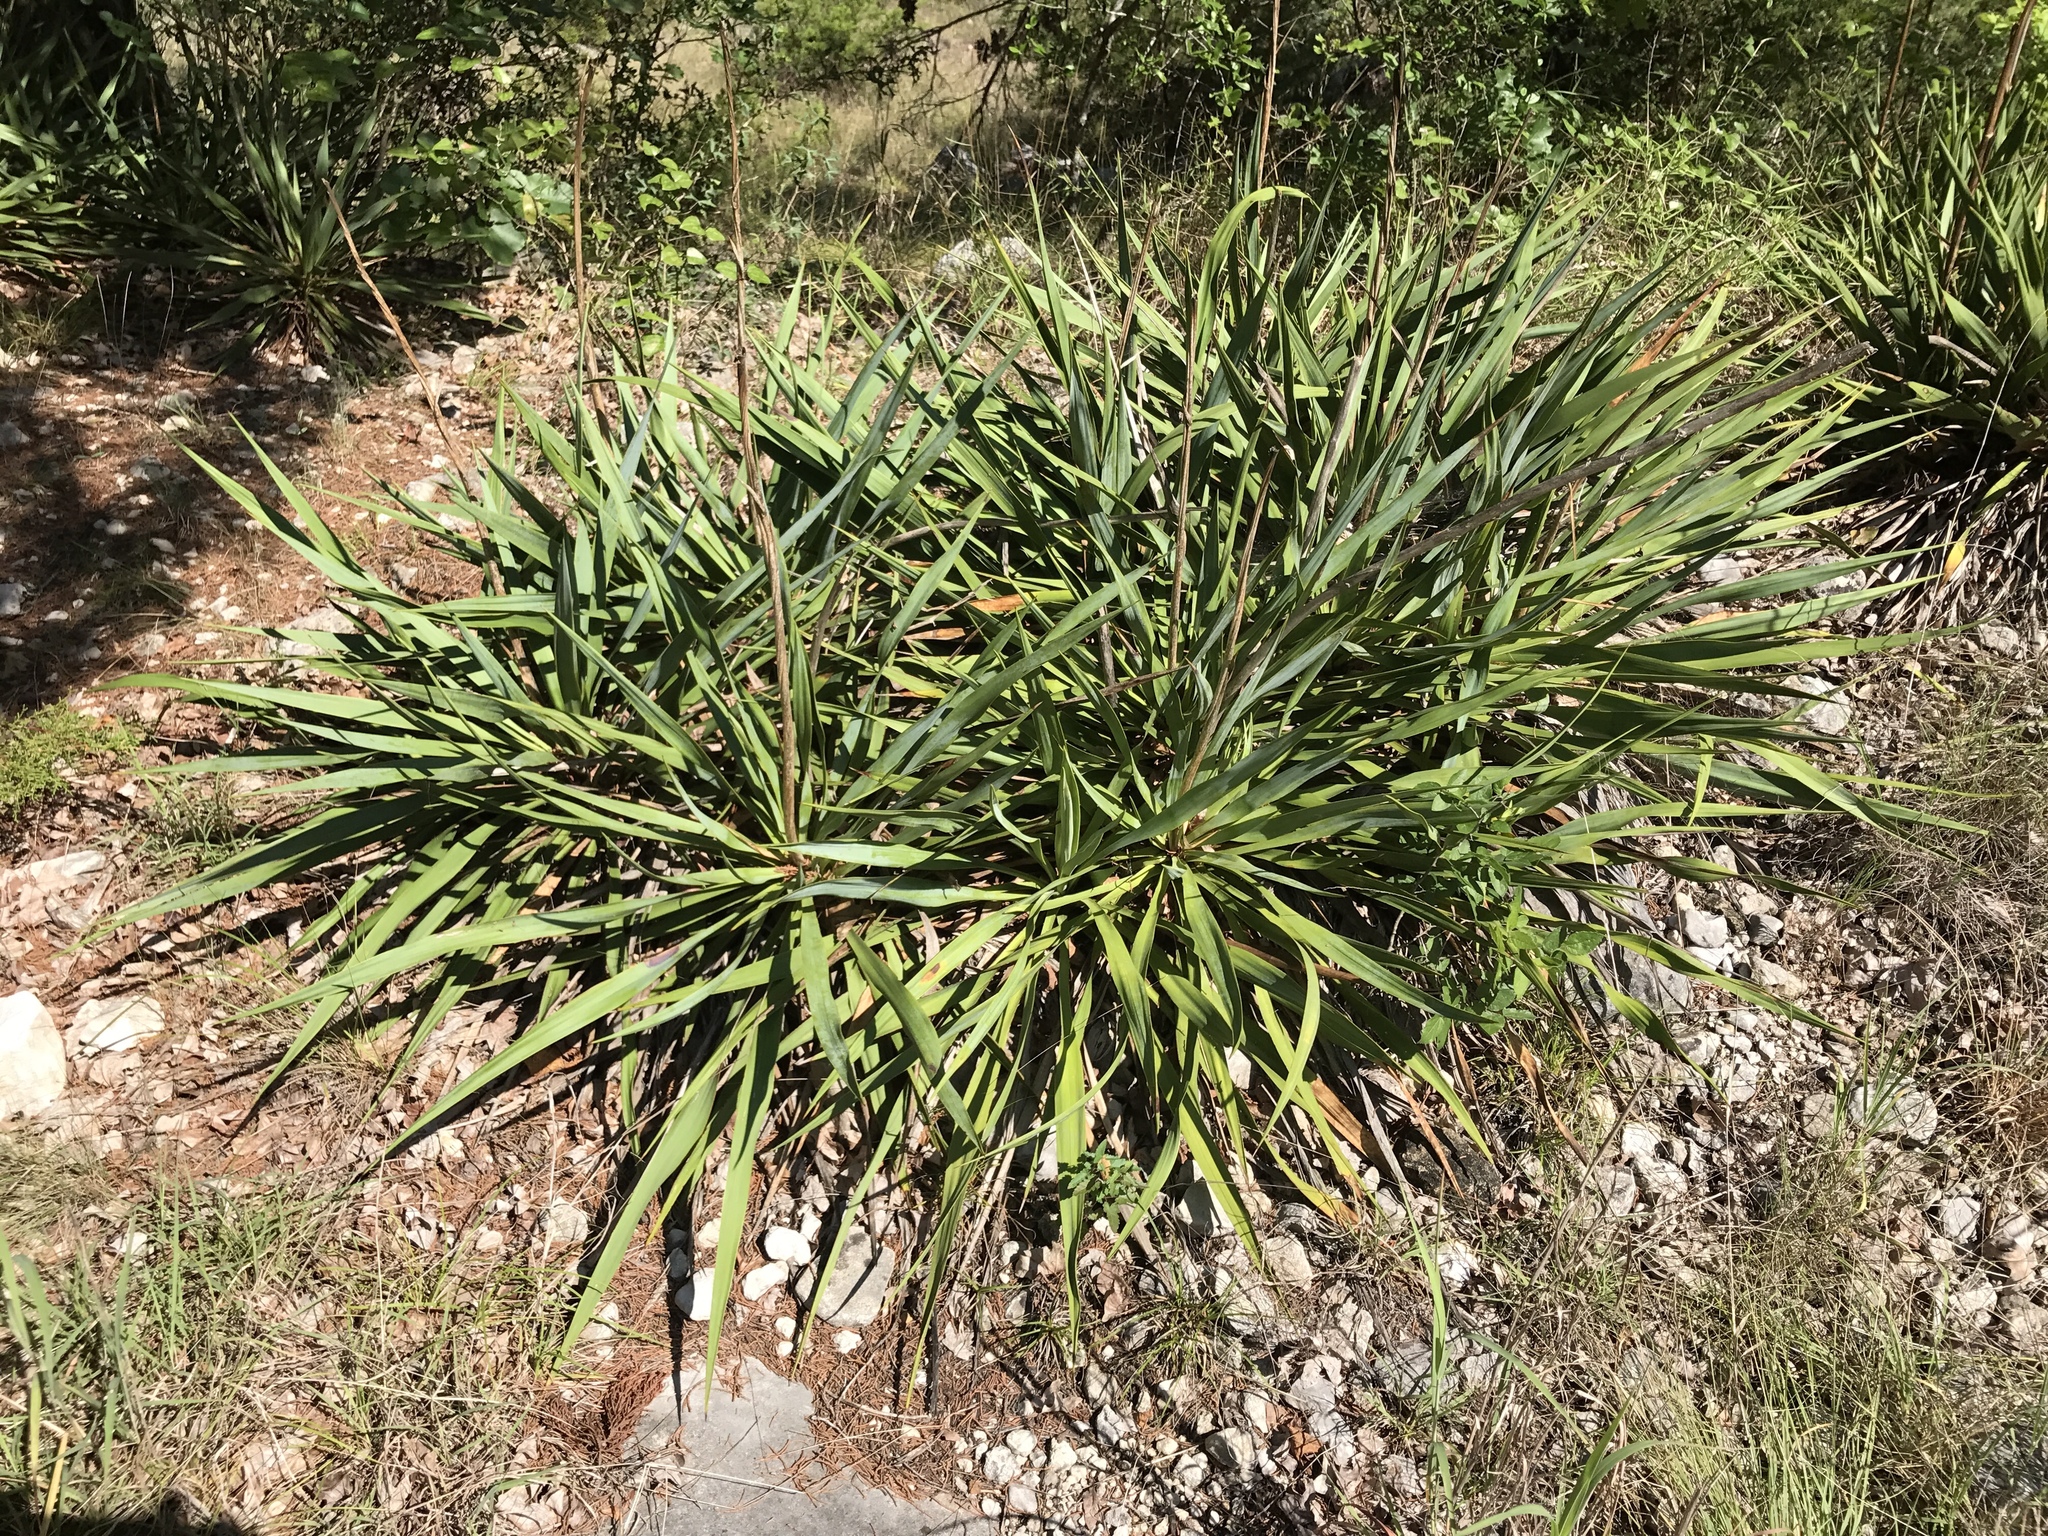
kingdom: Plantae
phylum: Tracheophyta
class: Liliopsida
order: Asparagales
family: Asparagaceae
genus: Yucca
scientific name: Yucca rupicola
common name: Twisted-leaf spanish-dagger
